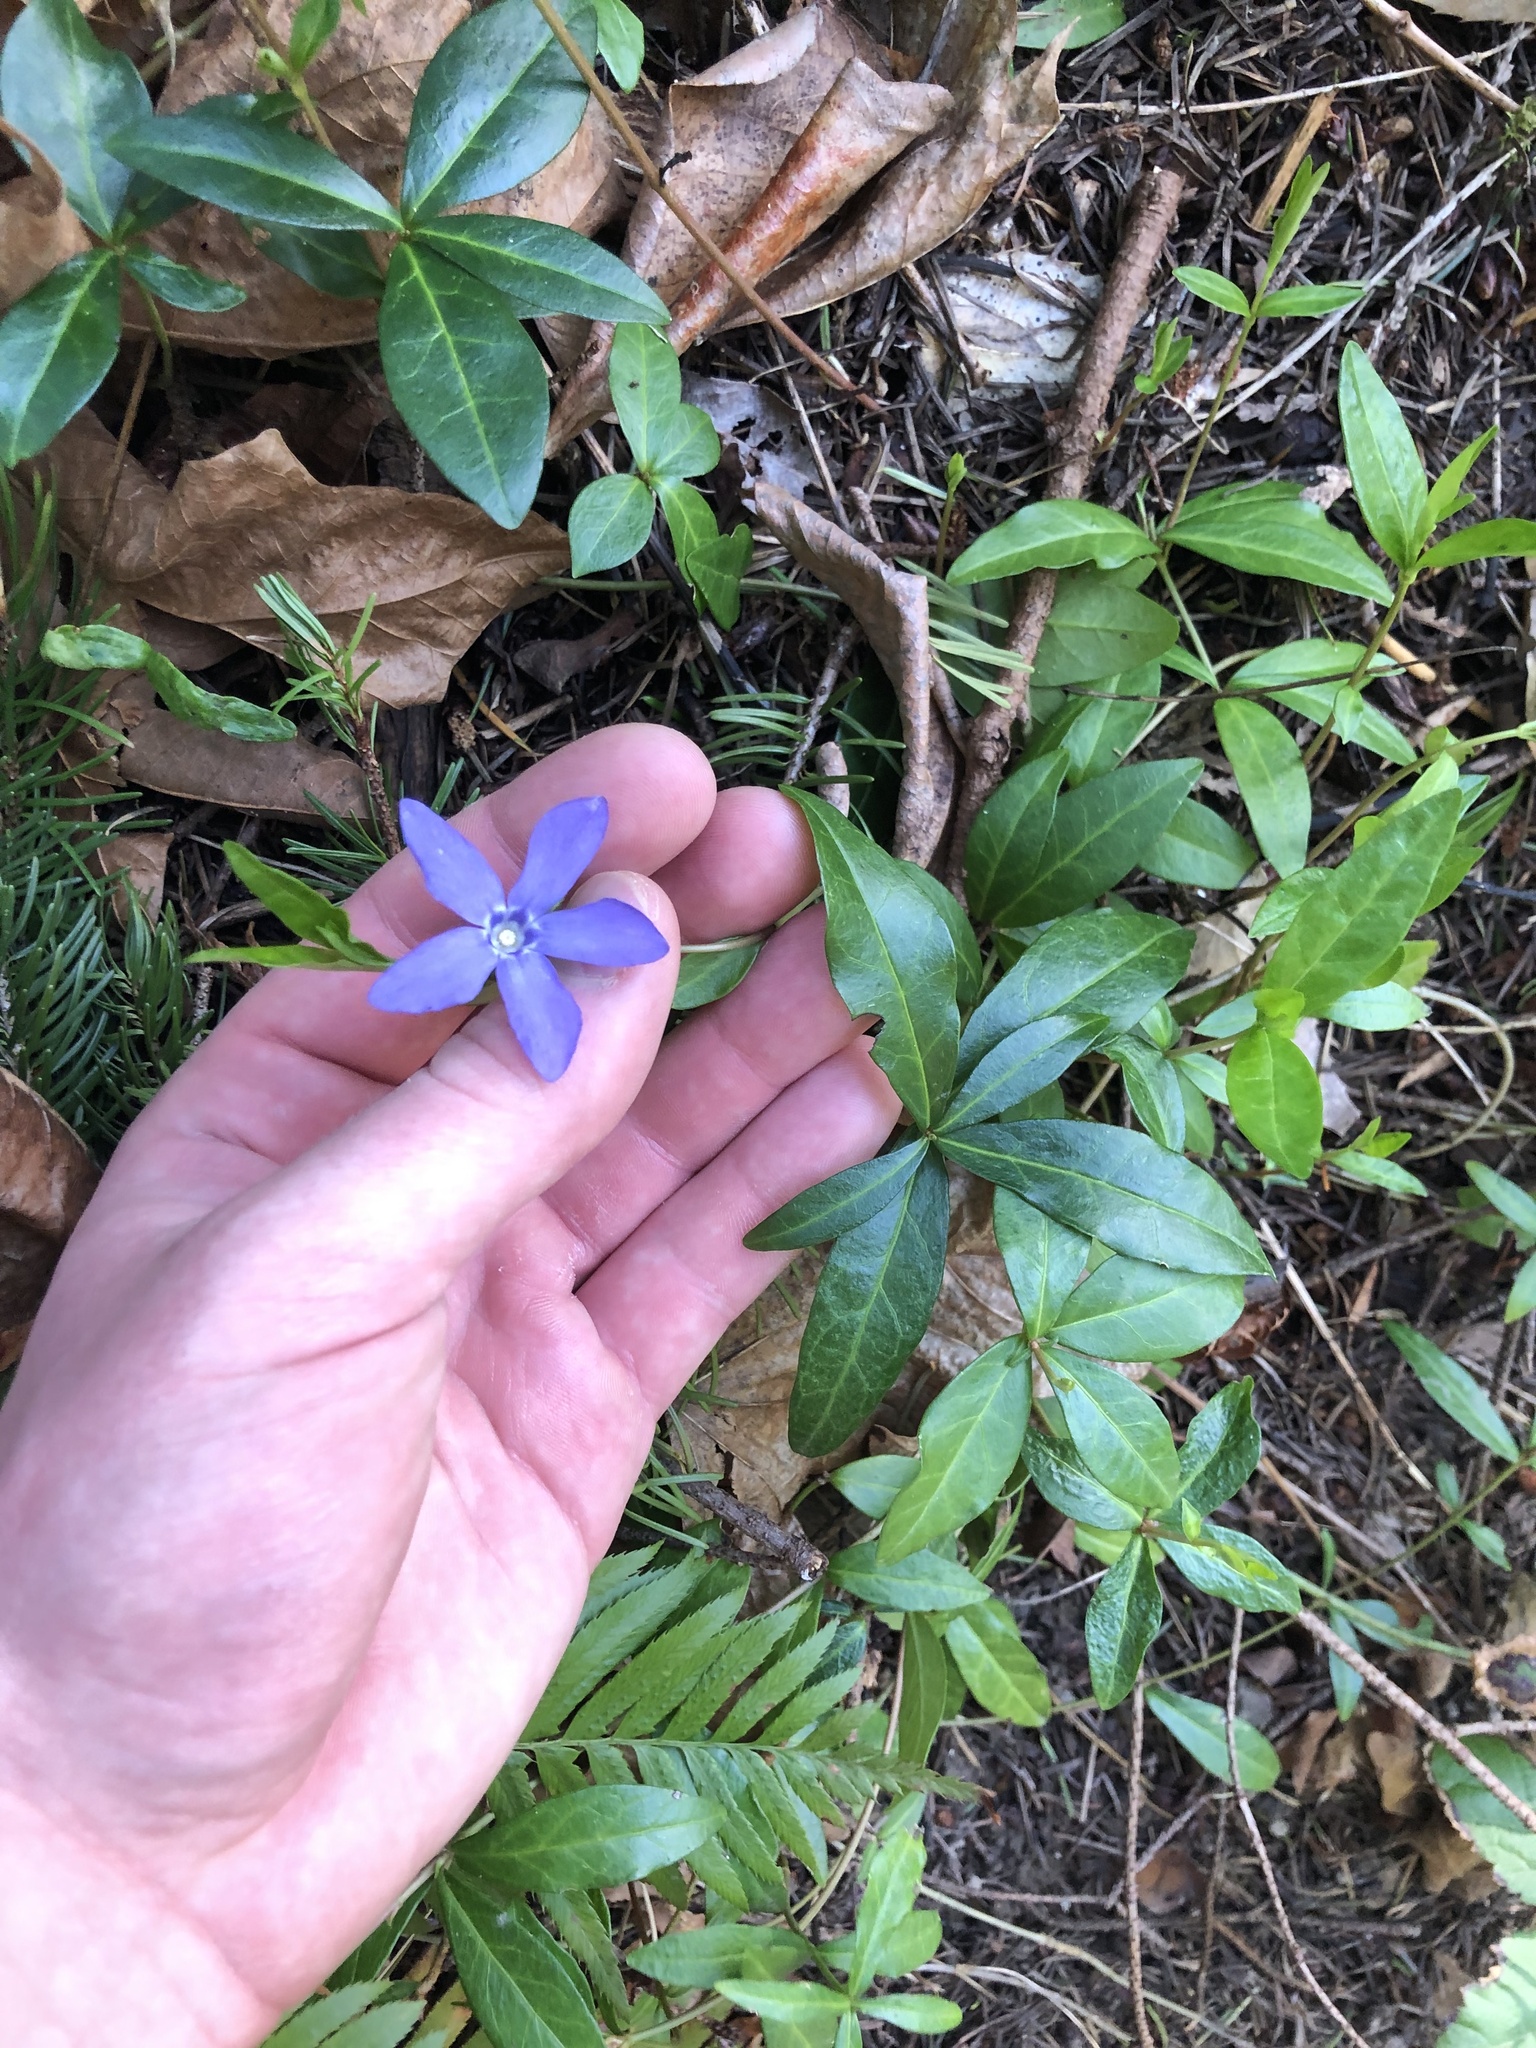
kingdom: Plantae
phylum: Tracheophyta
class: Magnoliopsida
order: Gentianales
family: Apocynaceae
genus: Vinca
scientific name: Vinca minor
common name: Lesser periwinkle
